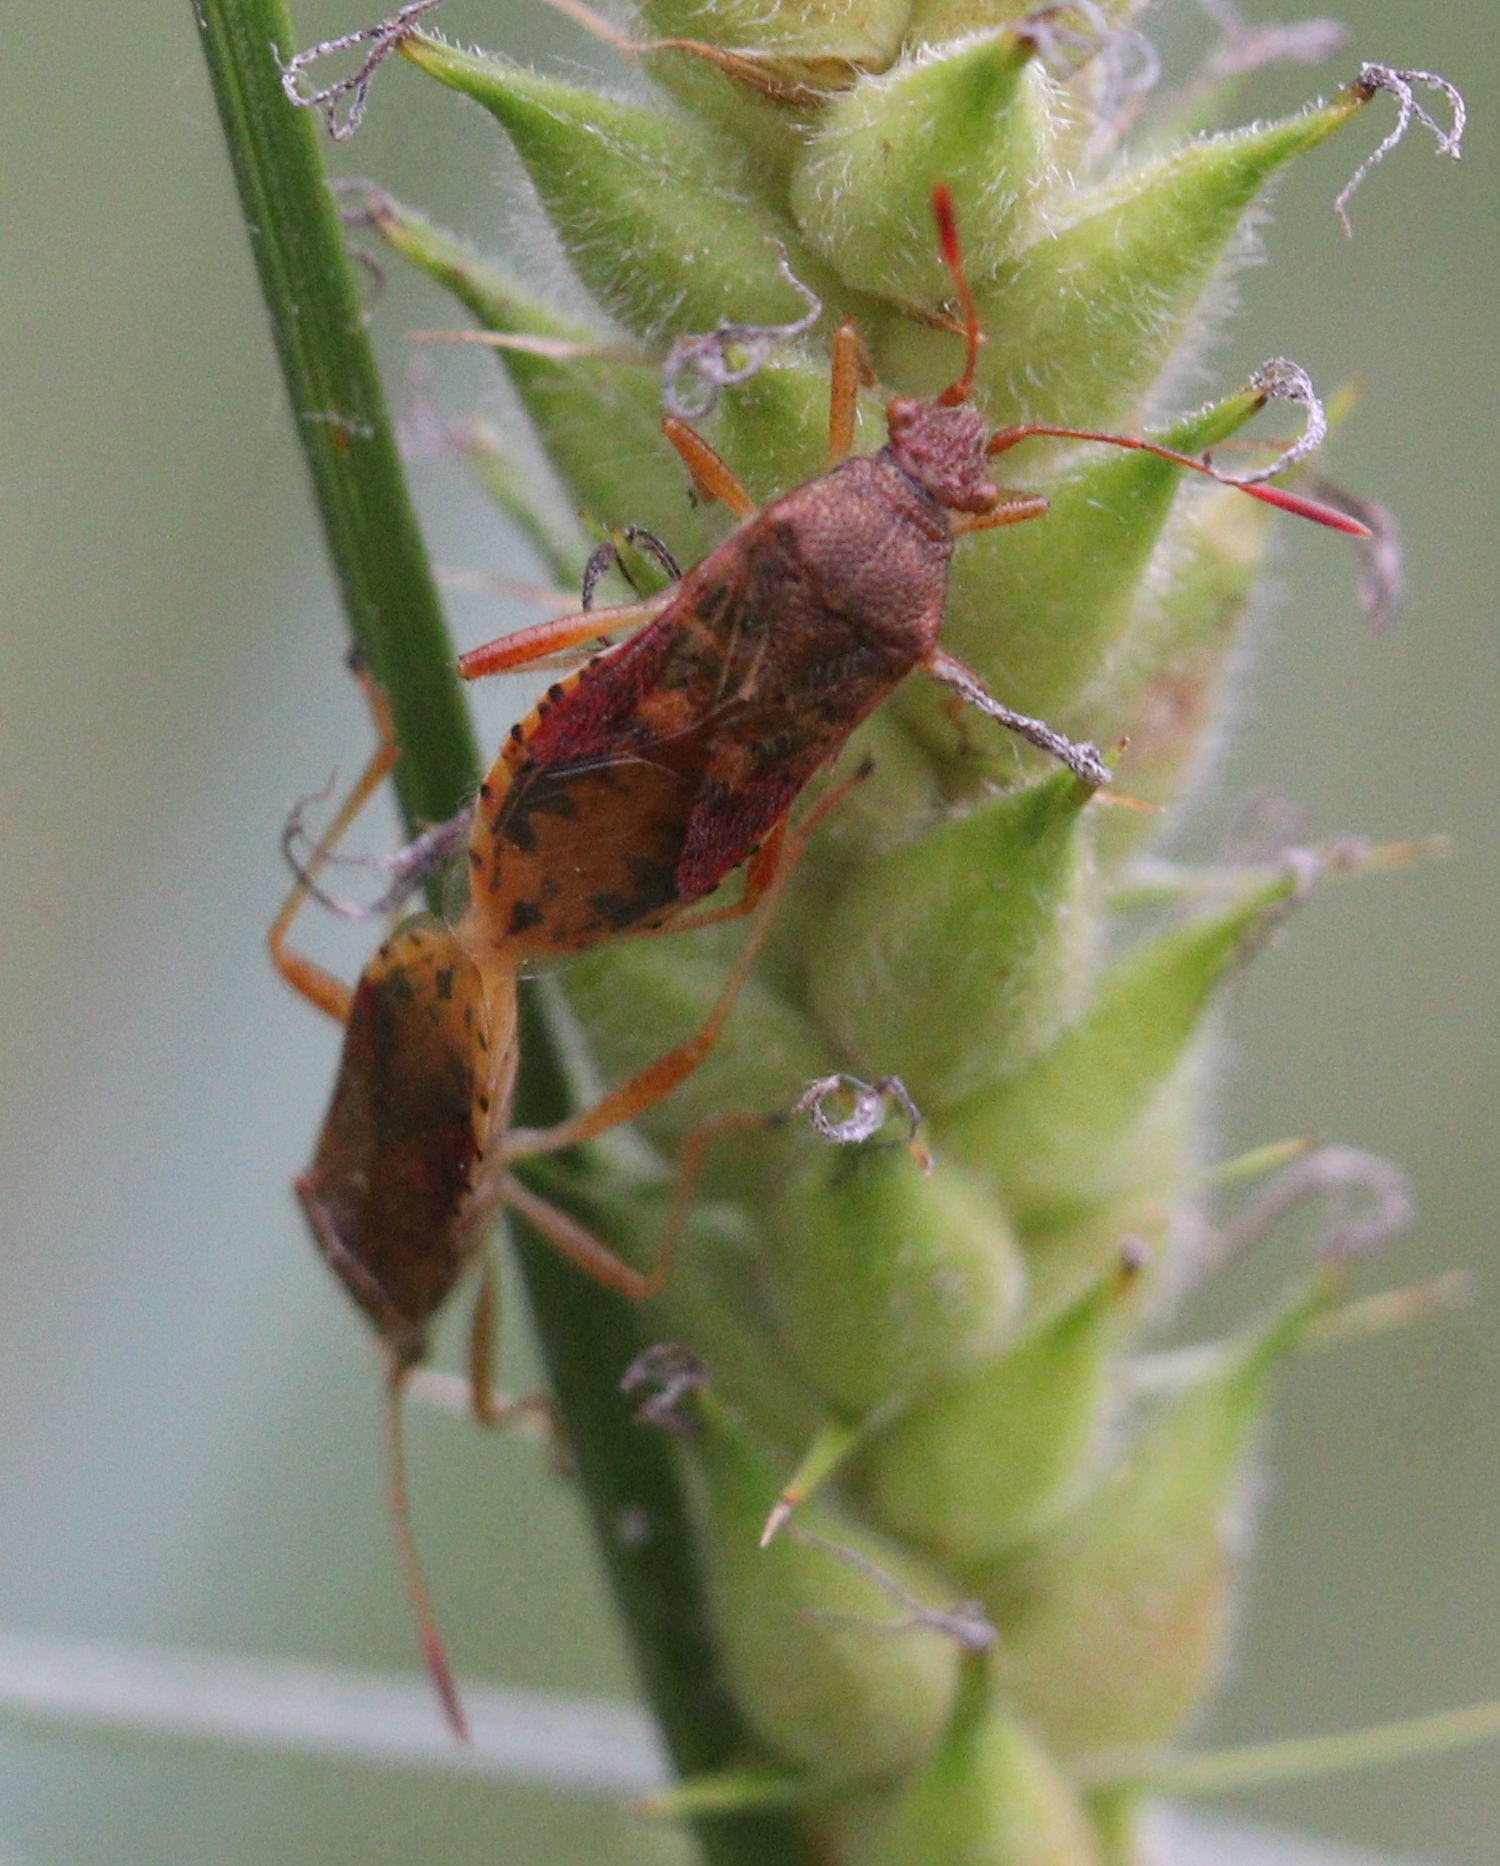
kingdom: Animalia
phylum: Arthropoda
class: Insecta
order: Hemiptera
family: Rhopalidae
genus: Rhopalus
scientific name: Rhopalus maculatus
